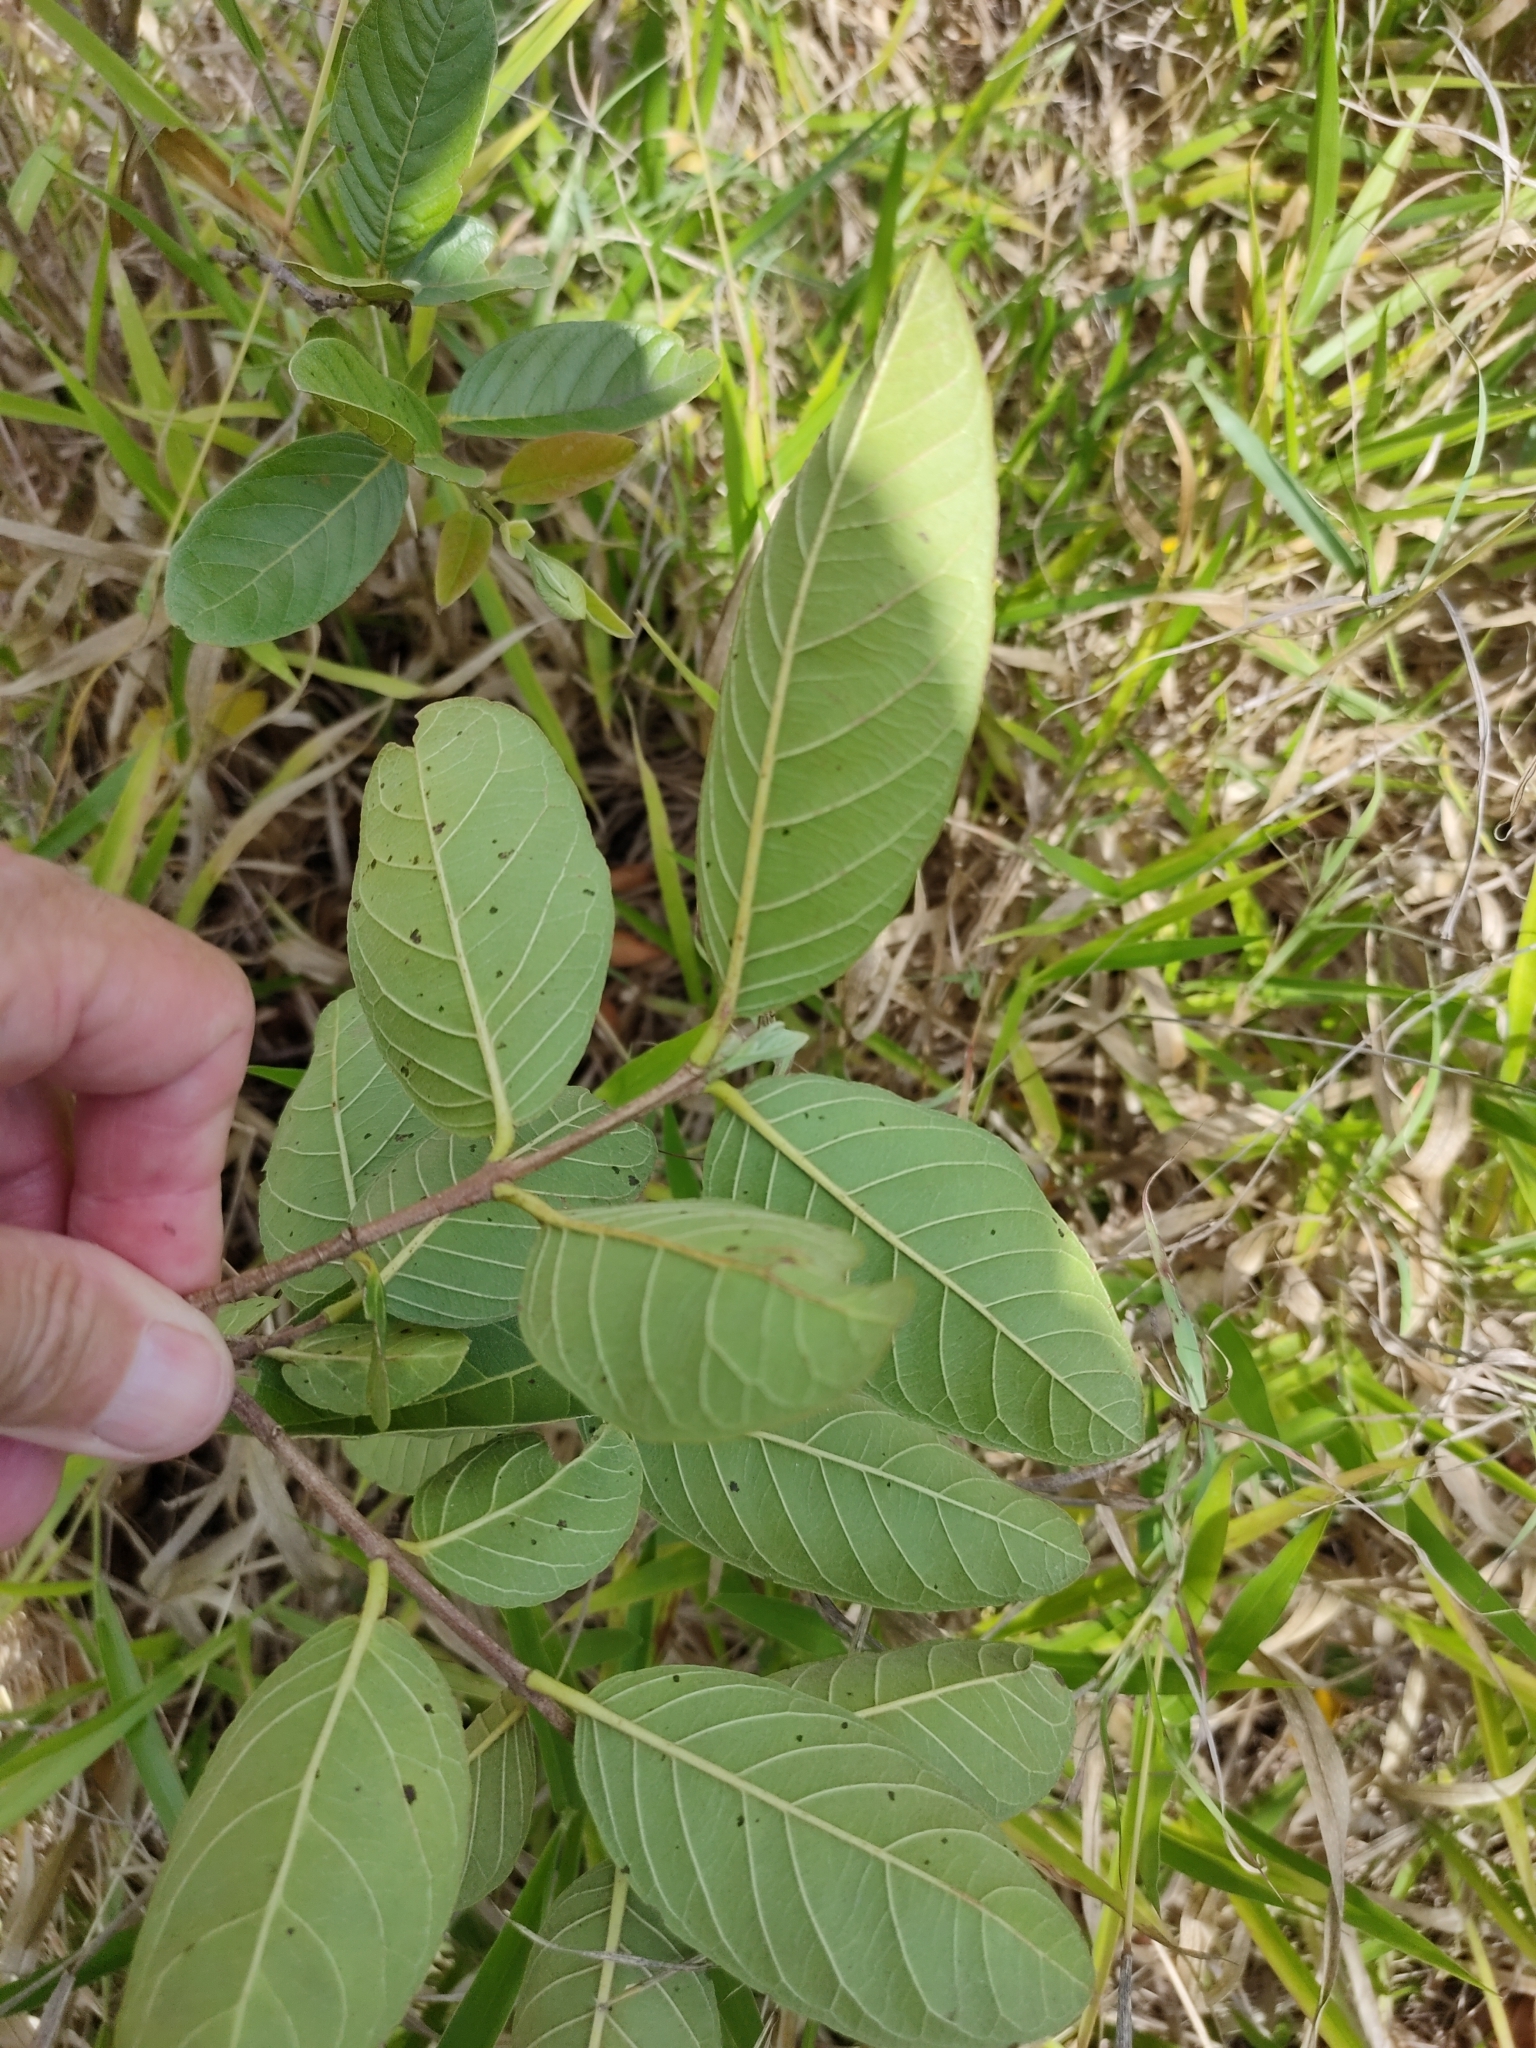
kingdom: Plantae
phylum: Tracheophyta
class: Magnoliopsida
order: Myrtales
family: Myrtaceae
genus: Psidium
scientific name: Psidium guineense
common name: Brazilian guava
